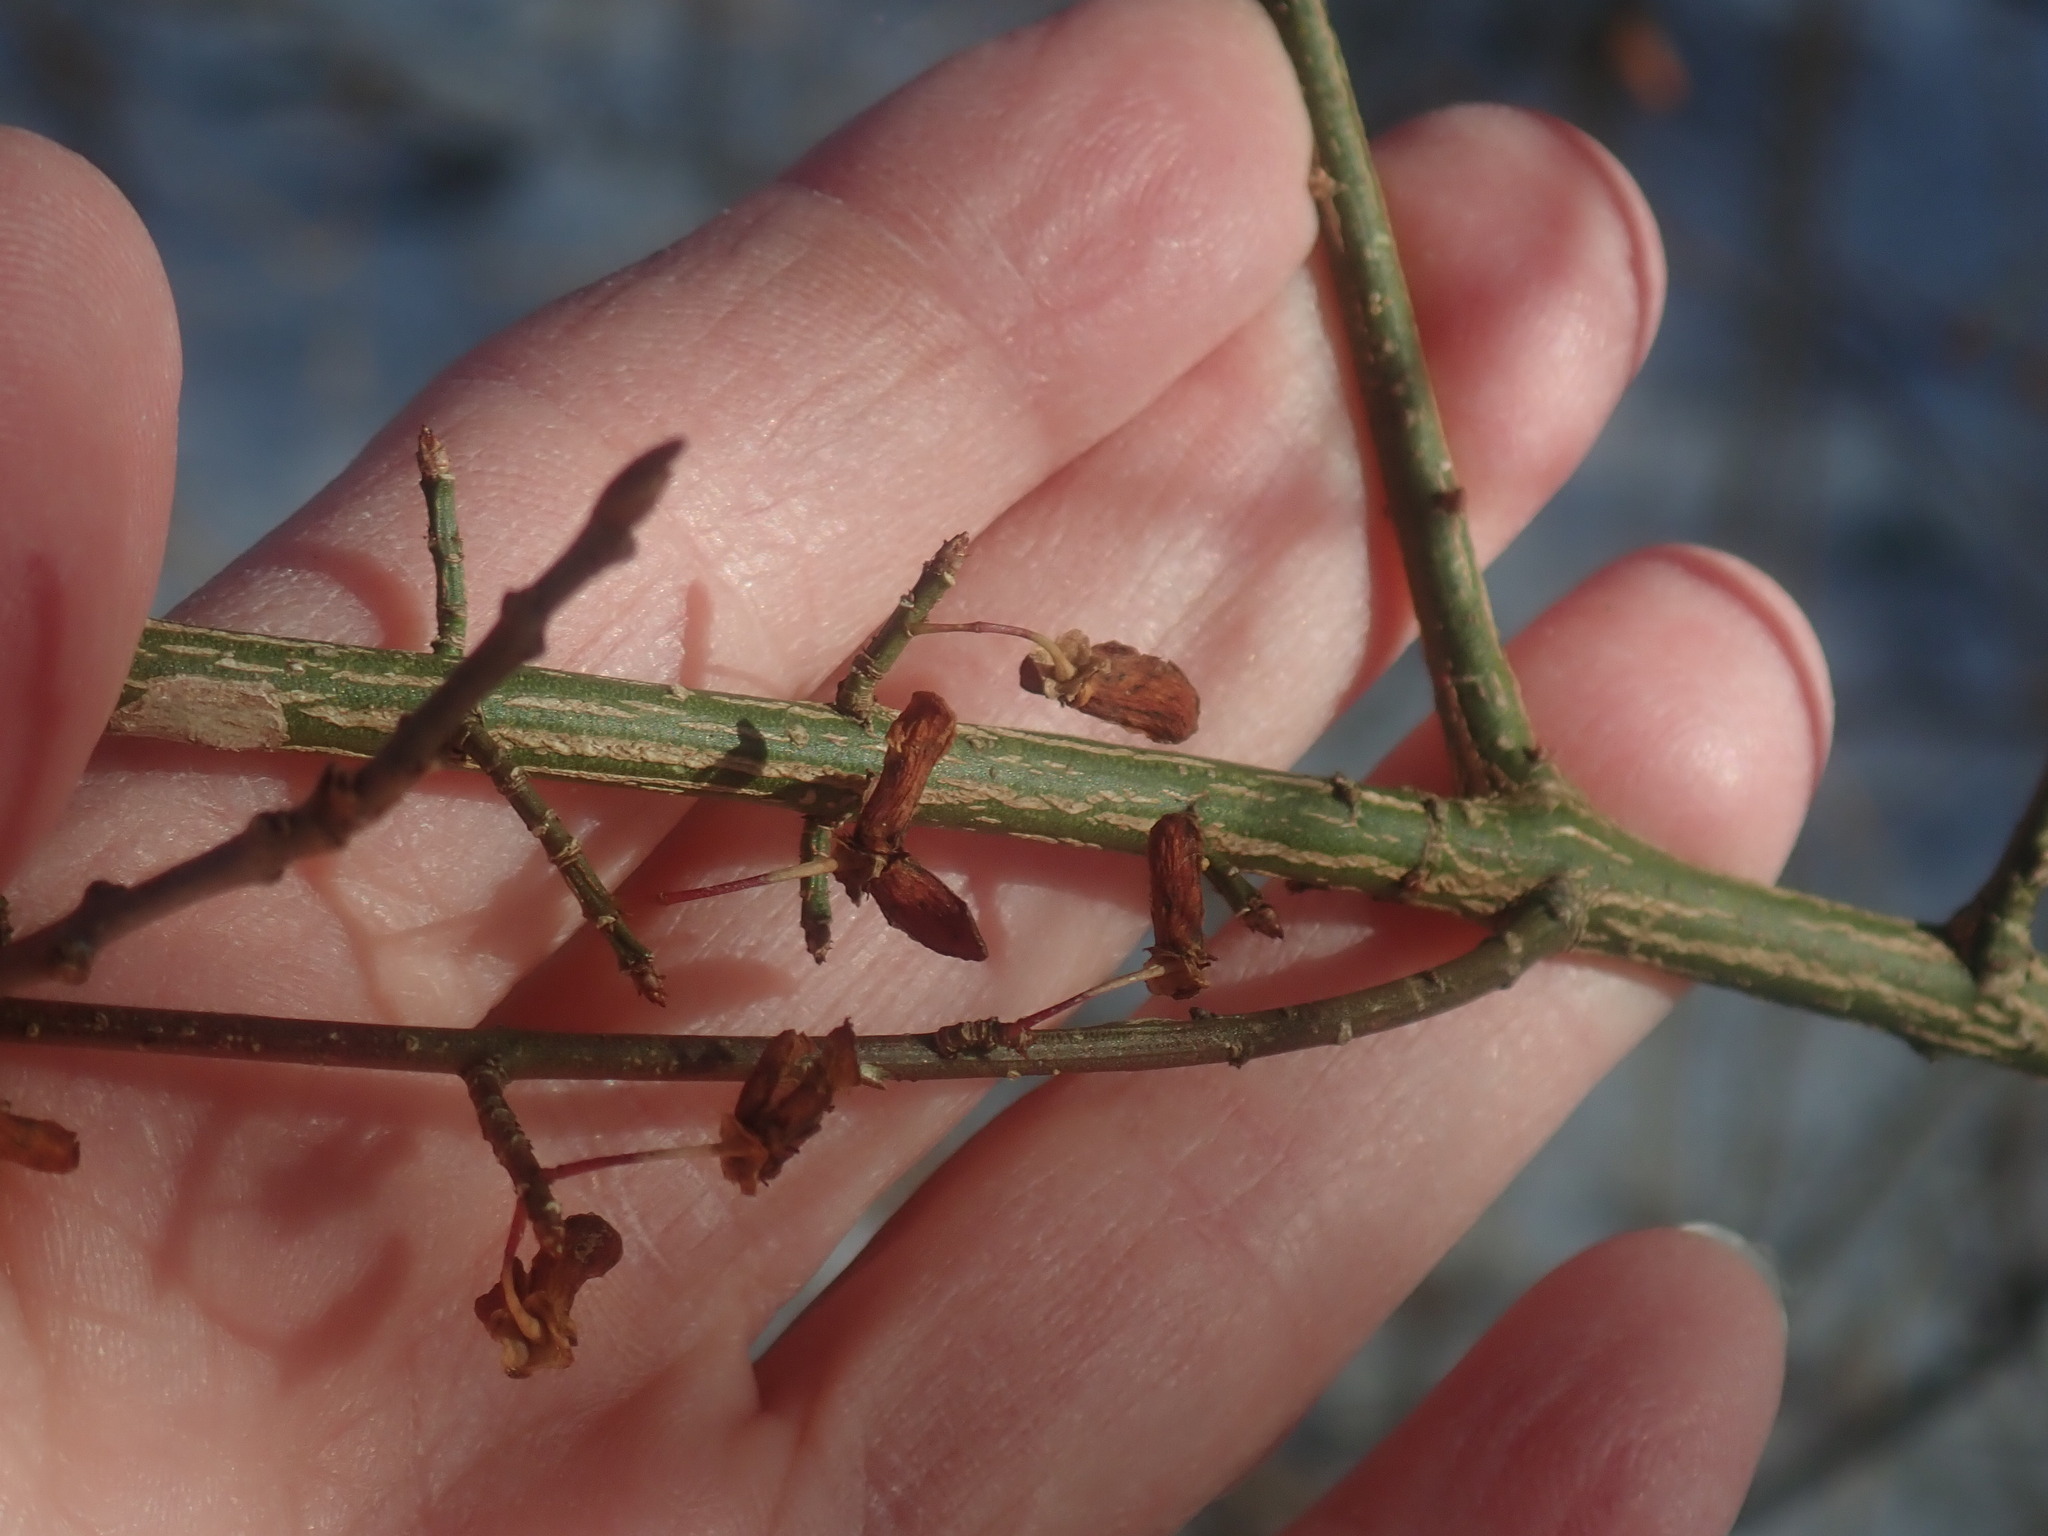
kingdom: Plantae
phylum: Tracheophyta
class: Magnoliopsida
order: Celastrales
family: Celastraceae
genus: Euonymus
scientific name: Euonymus alatus
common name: Winged euonymus
